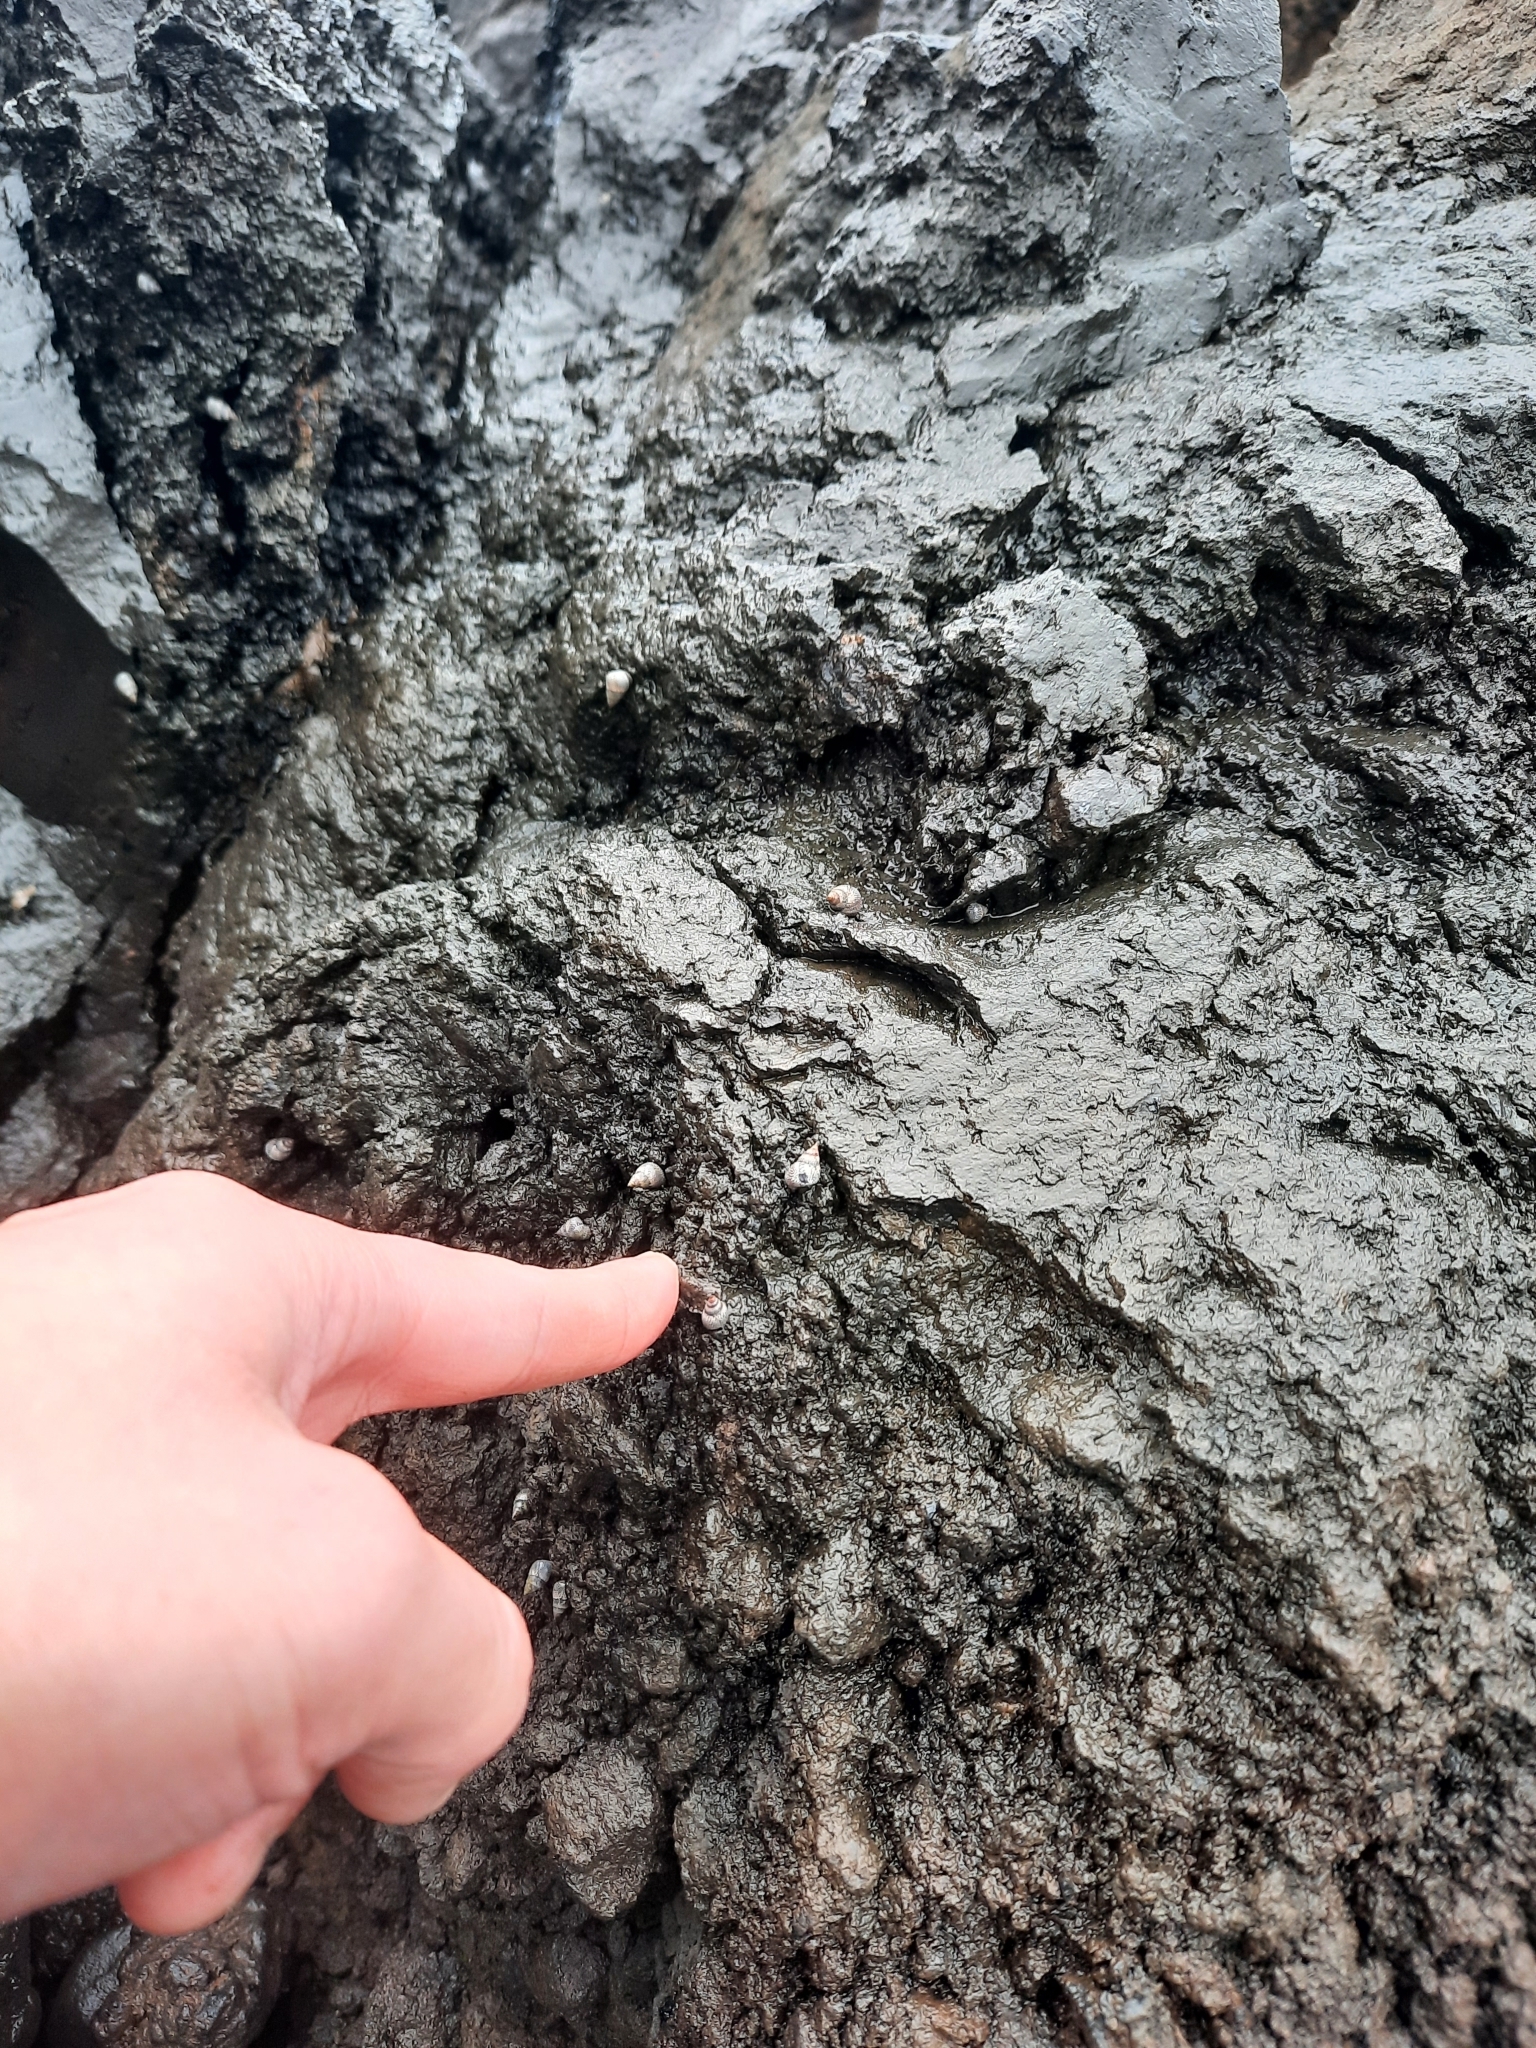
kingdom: Animalia
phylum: Mollusca
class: Gastropoda
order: Littorinimorpha
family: Littorinidae
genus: Littoraria
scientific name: Littoraria pintado
